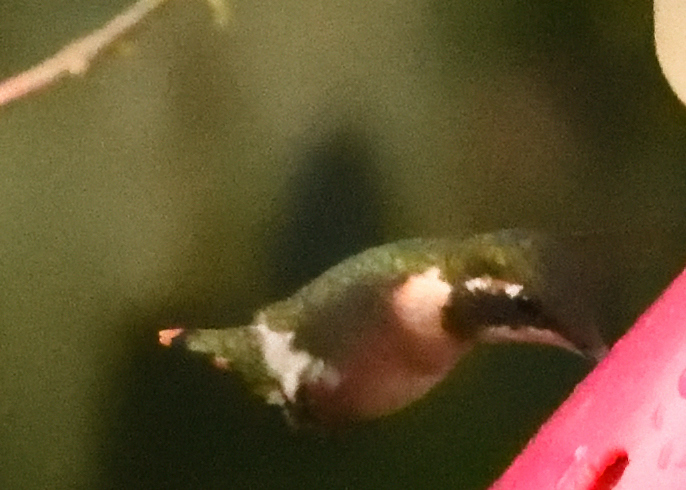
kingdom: Animalia
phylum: Chordata
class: Aves
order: Apodiformes
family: Trochilidae
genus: Chaetocercus
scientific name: Chaetocercus mulsant
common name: White-bellied woodstar
